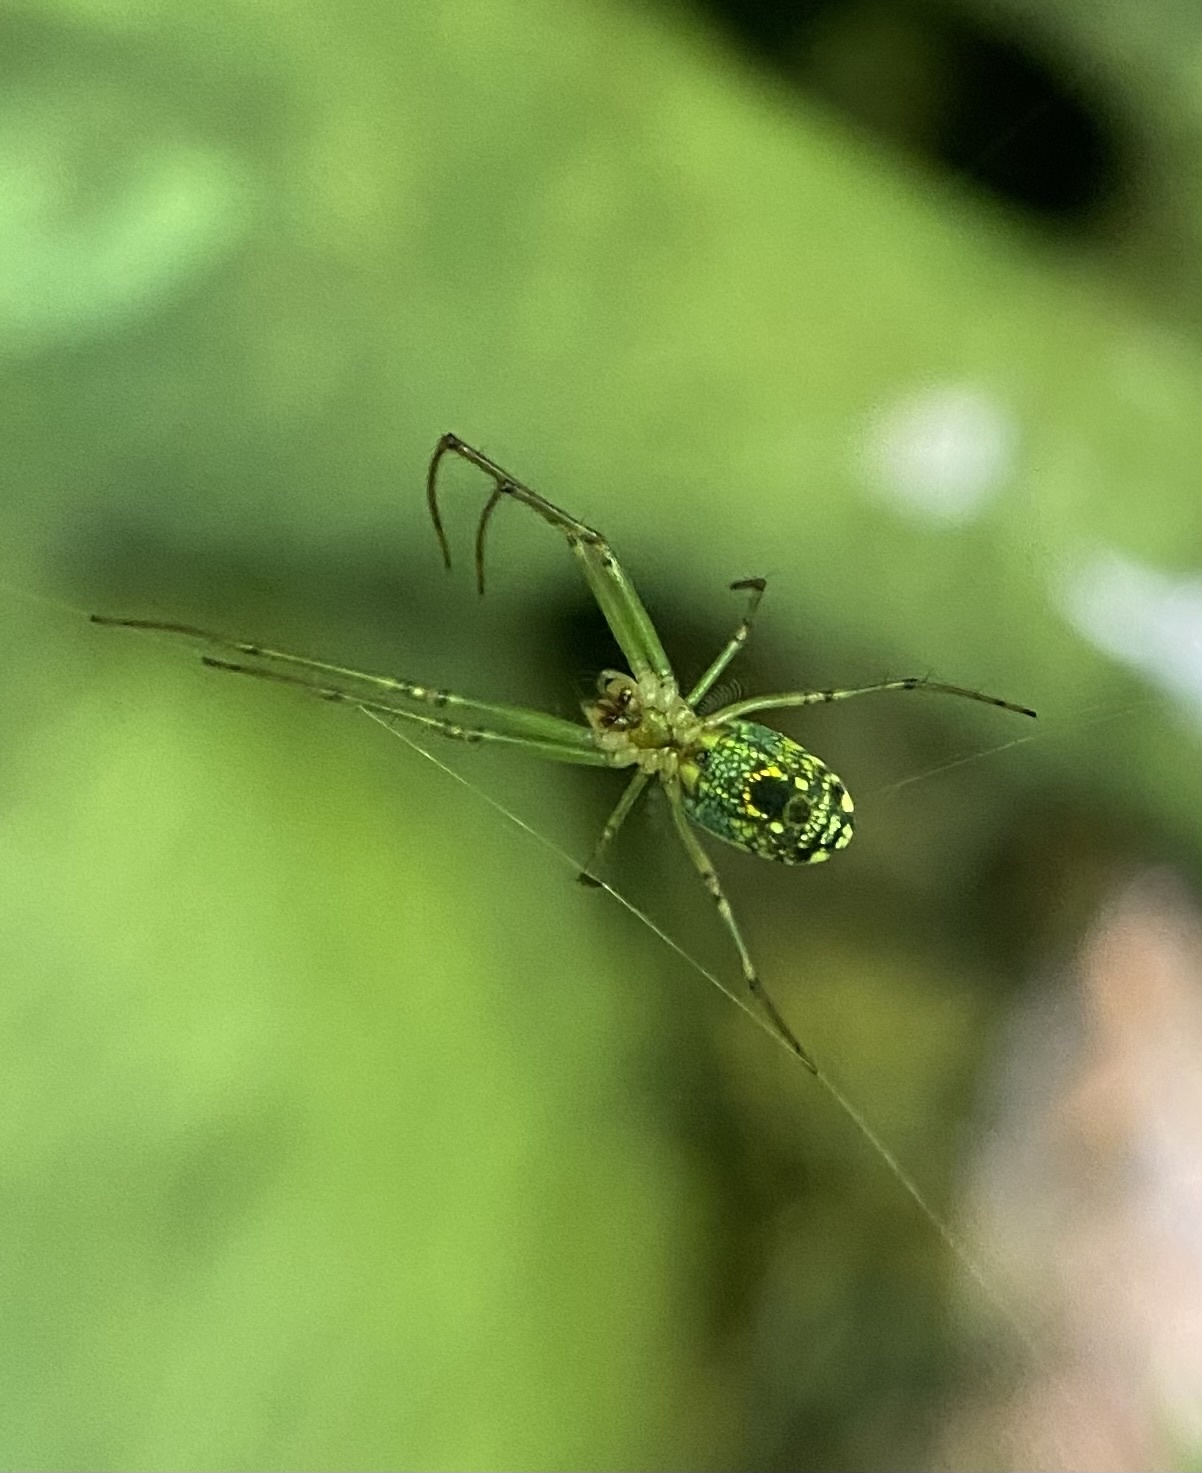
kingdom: Animalia
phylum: Arthropoda
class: Arachnida
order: Araneae
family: Tetragnathidae
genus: Leucauge
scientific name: Leucauge venusta
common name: Longjawed orb weavers
